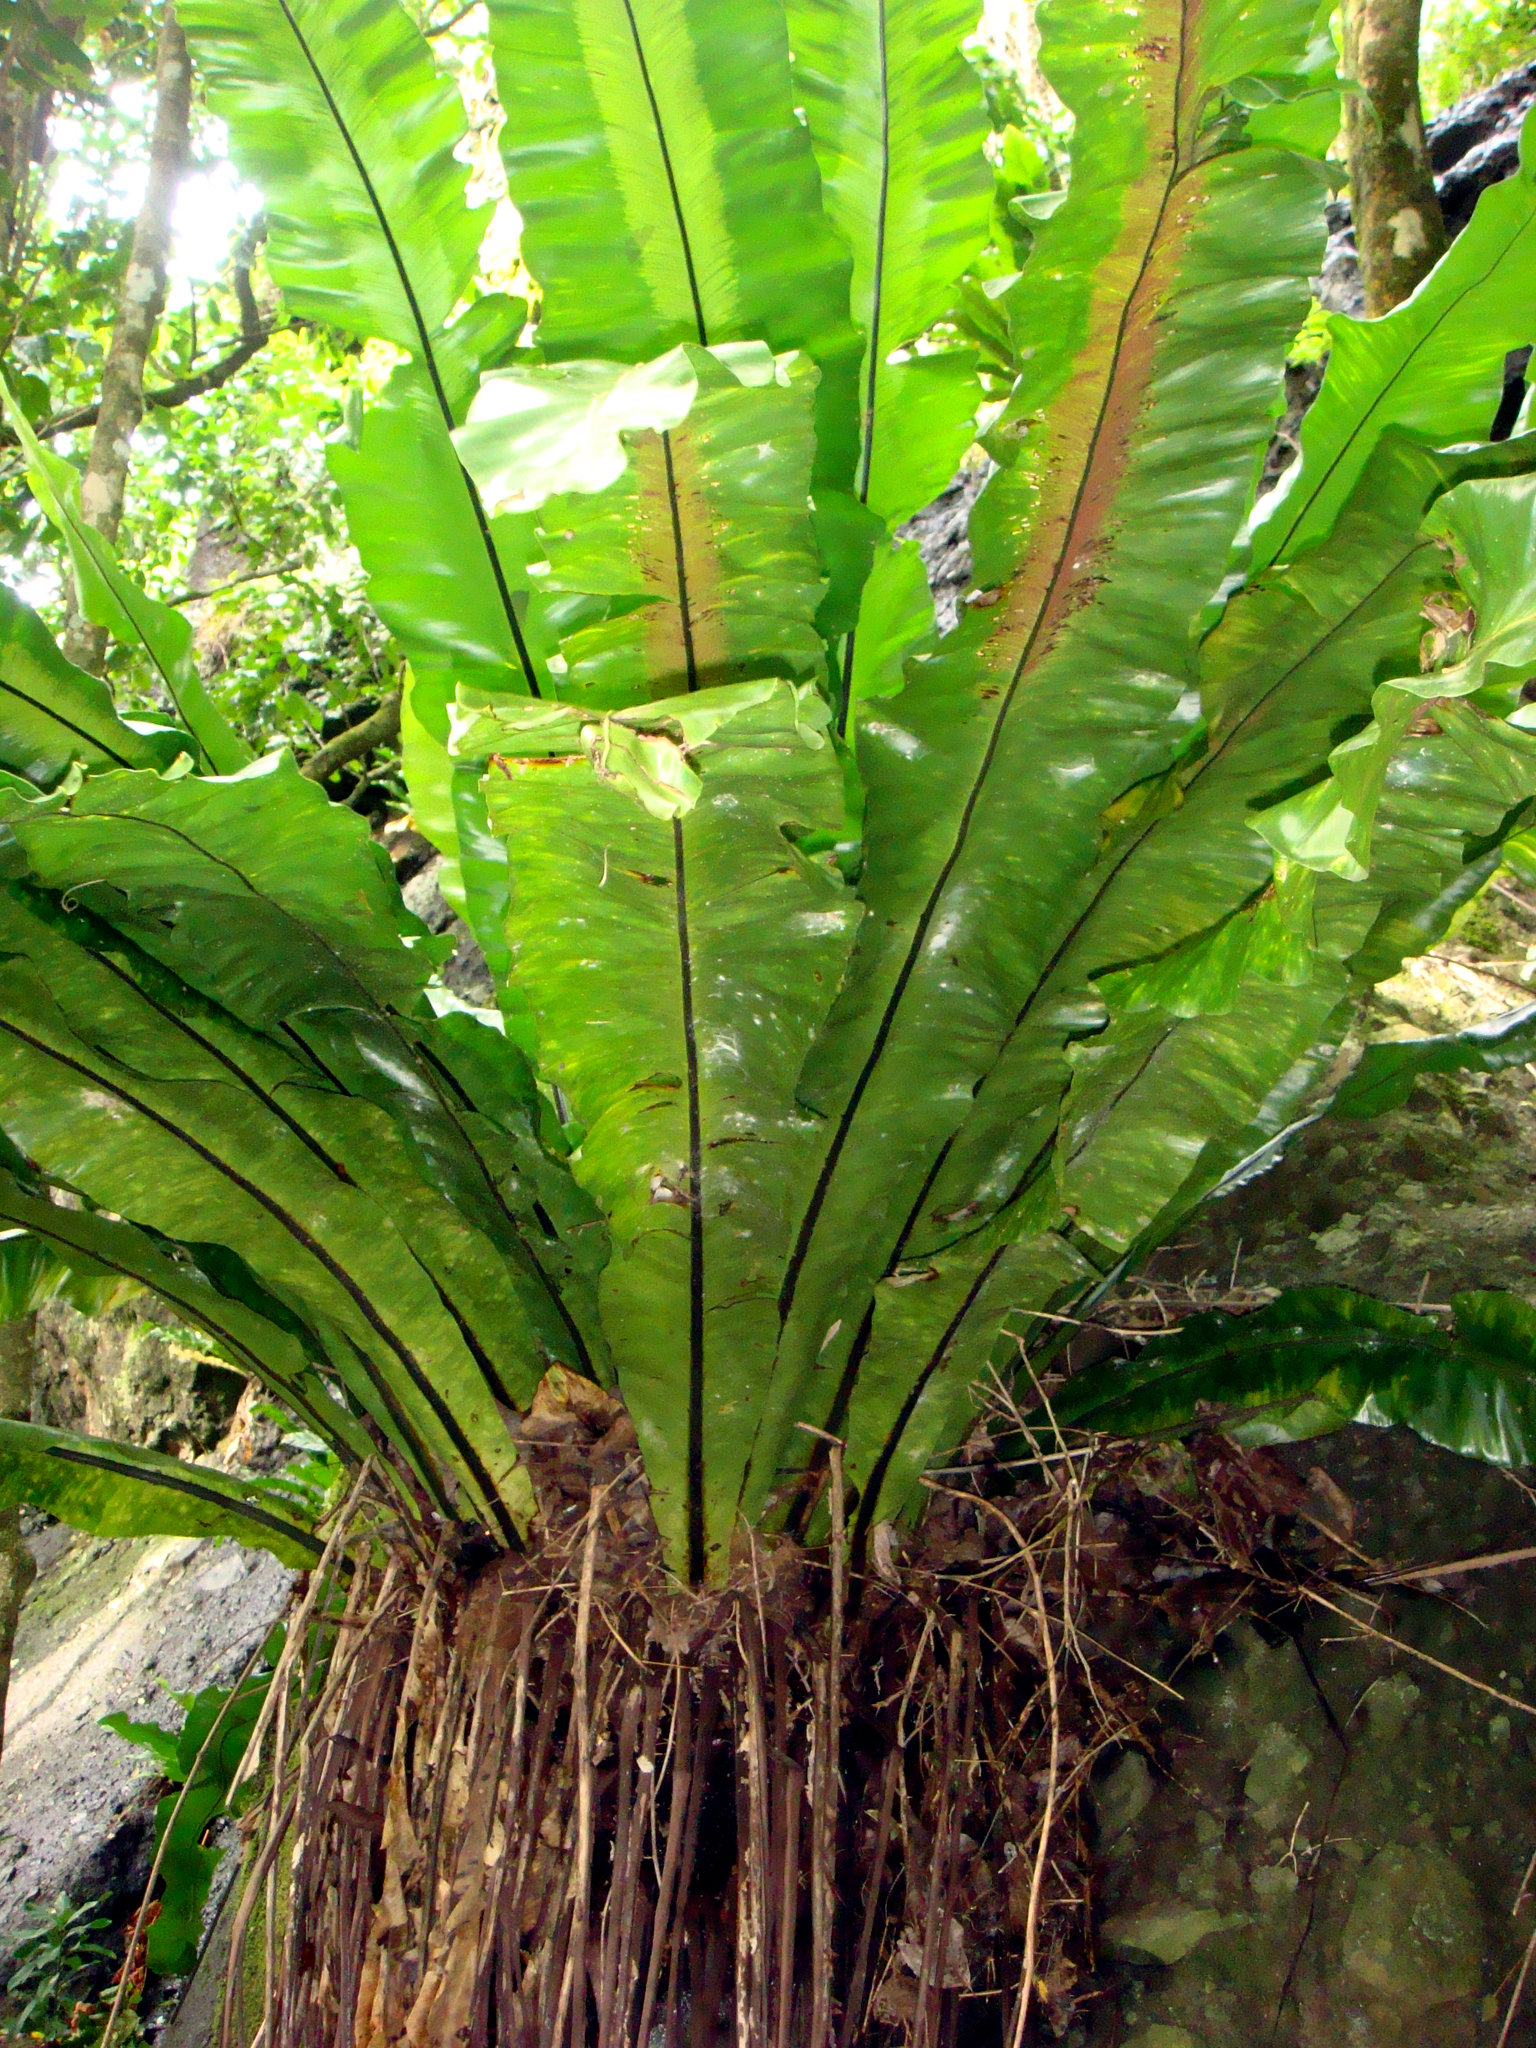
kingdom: Plantae
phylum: Tracheophyta
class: Polypodiopsida
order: Polypodiales
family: Aspleniaceae
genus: Asplenium
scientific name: Asplenium nidus
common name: Bird's-nest fern
